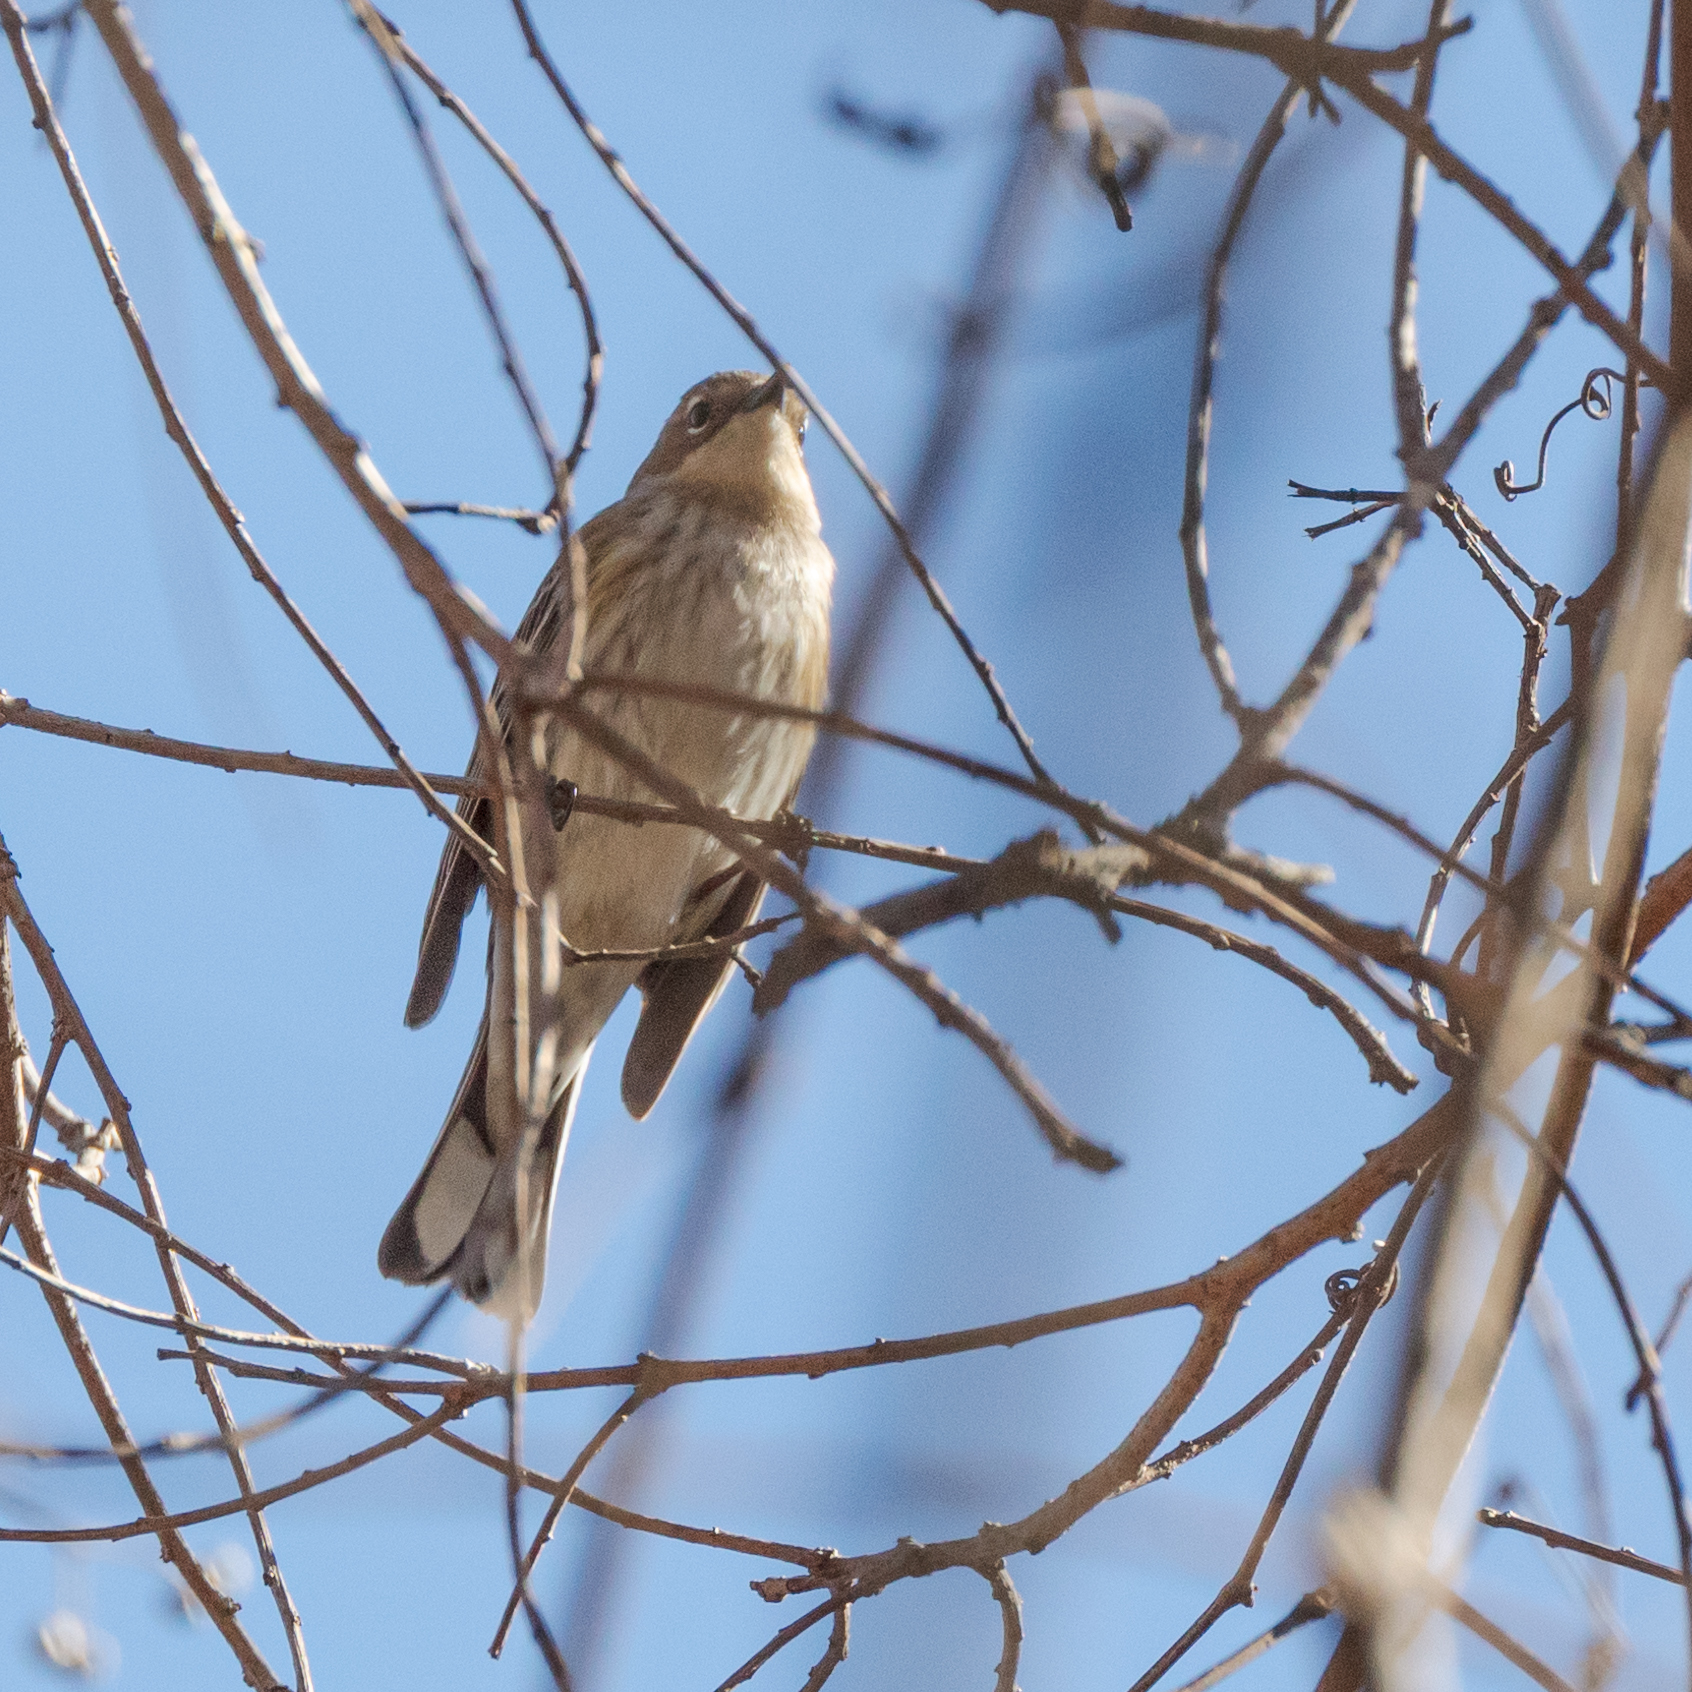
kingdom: Animalia
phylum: Chordata
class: Aves
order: Passeriformes
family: Parulidae
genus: Setophaga
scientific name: Setophaga coronata
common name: Myrtle warbler
